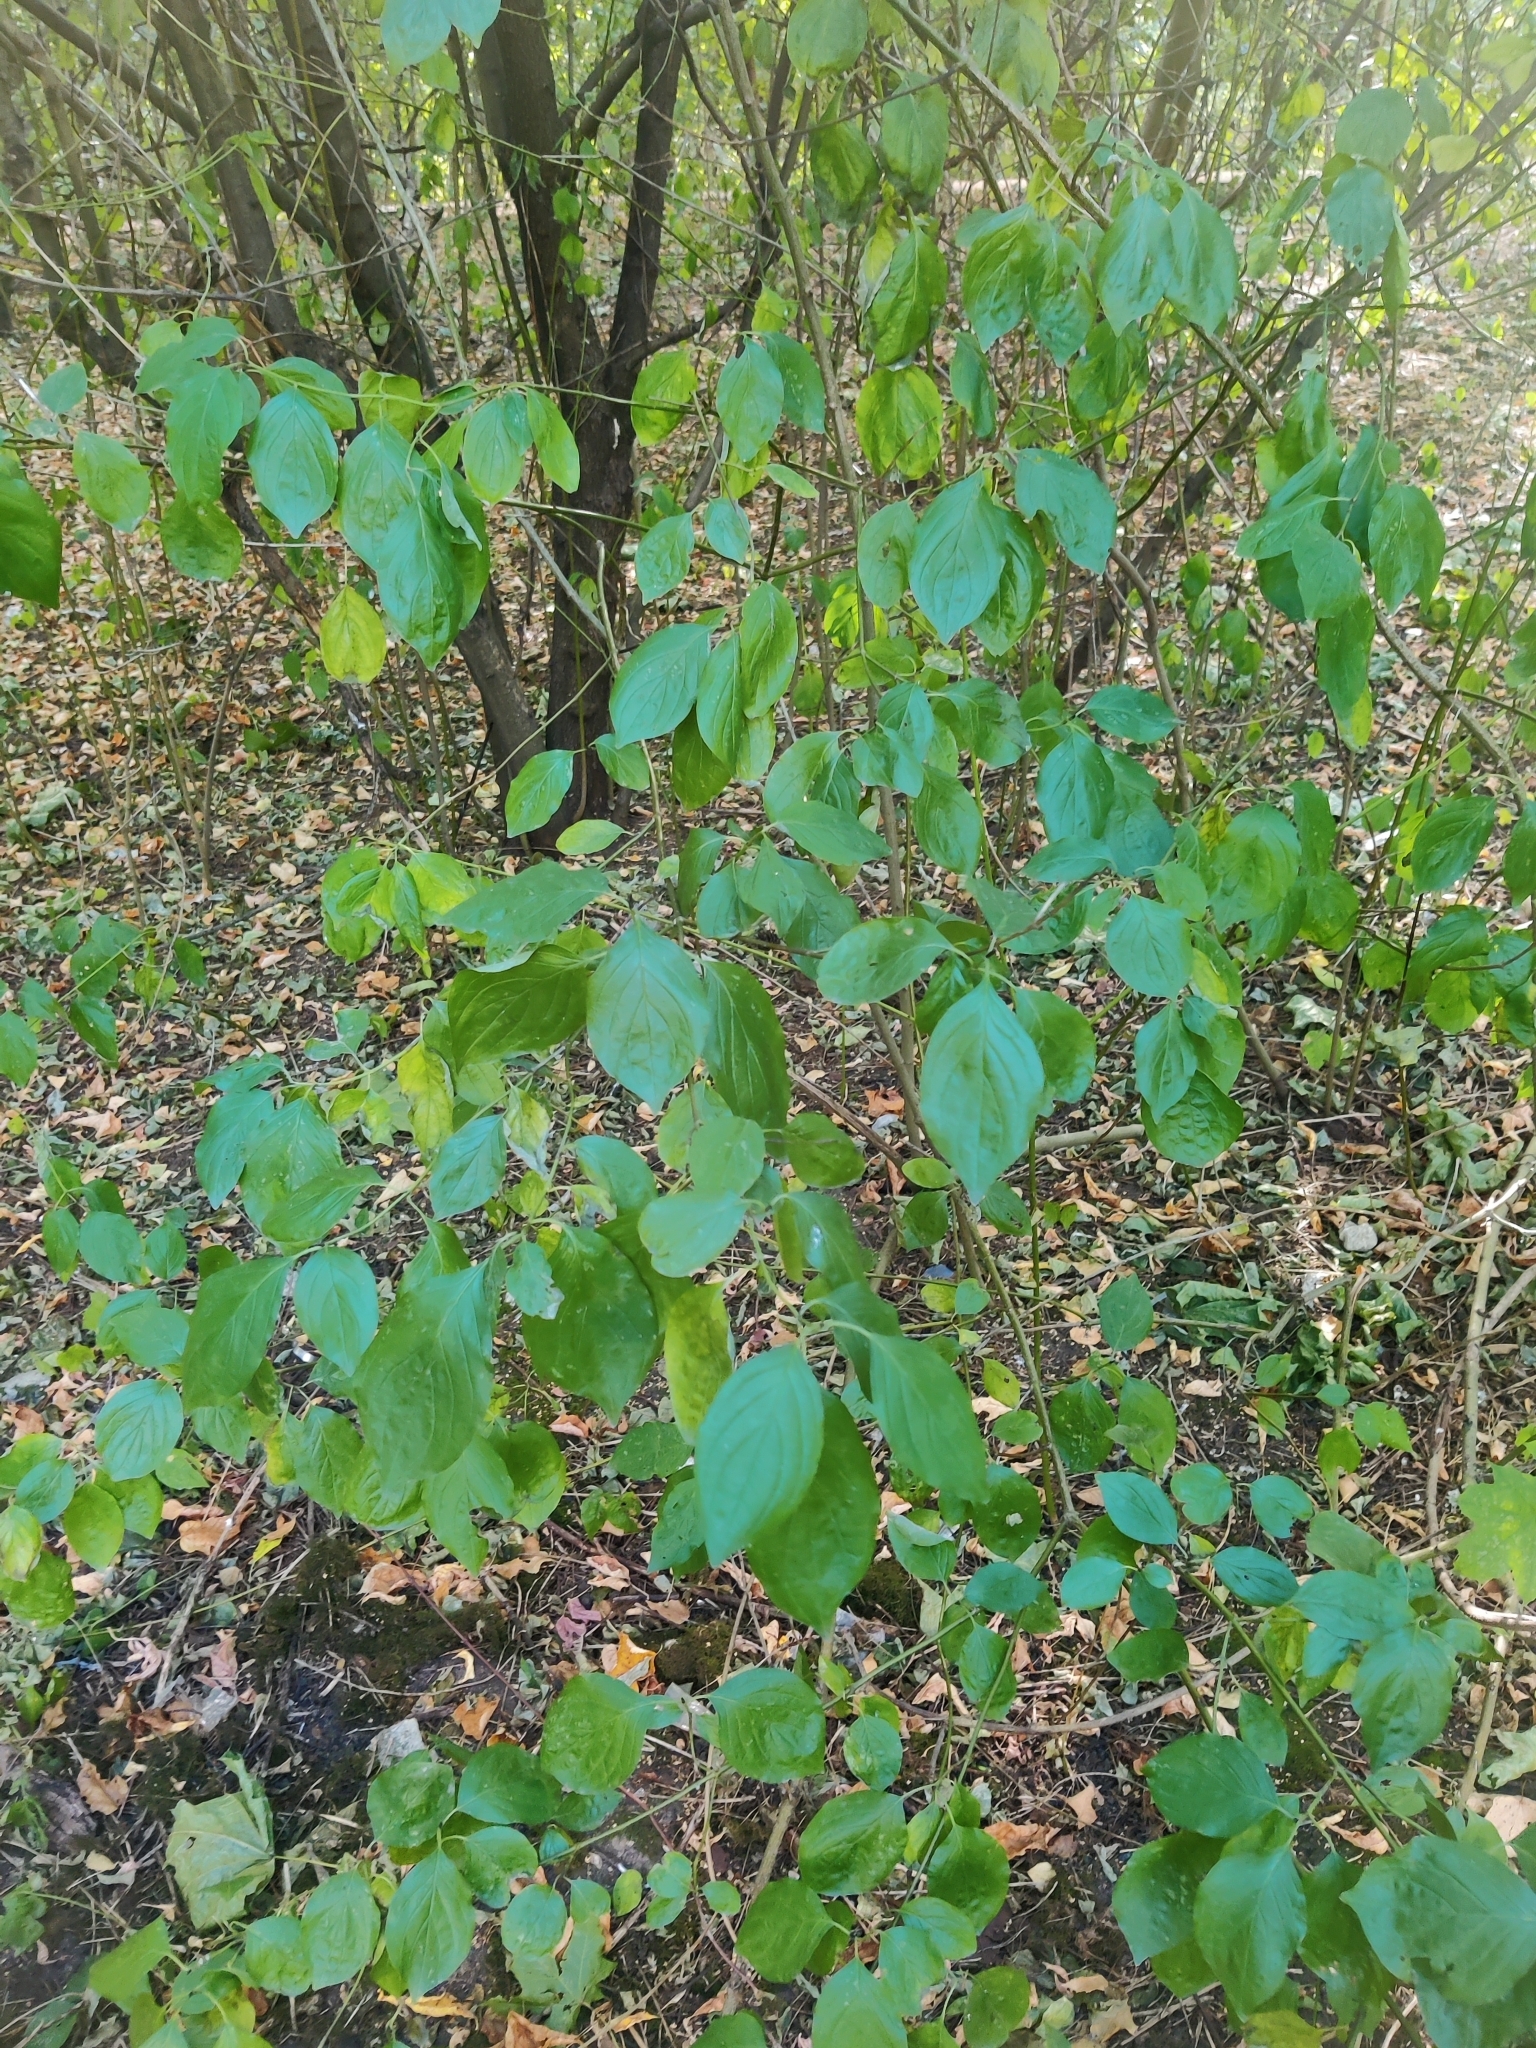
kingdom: Plantae
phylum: Tracheophyta
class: Magnoliopsida
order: Cornales
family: Cornaceae
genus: Cornus
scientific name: Cornus sanguinea
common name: Dogwood
